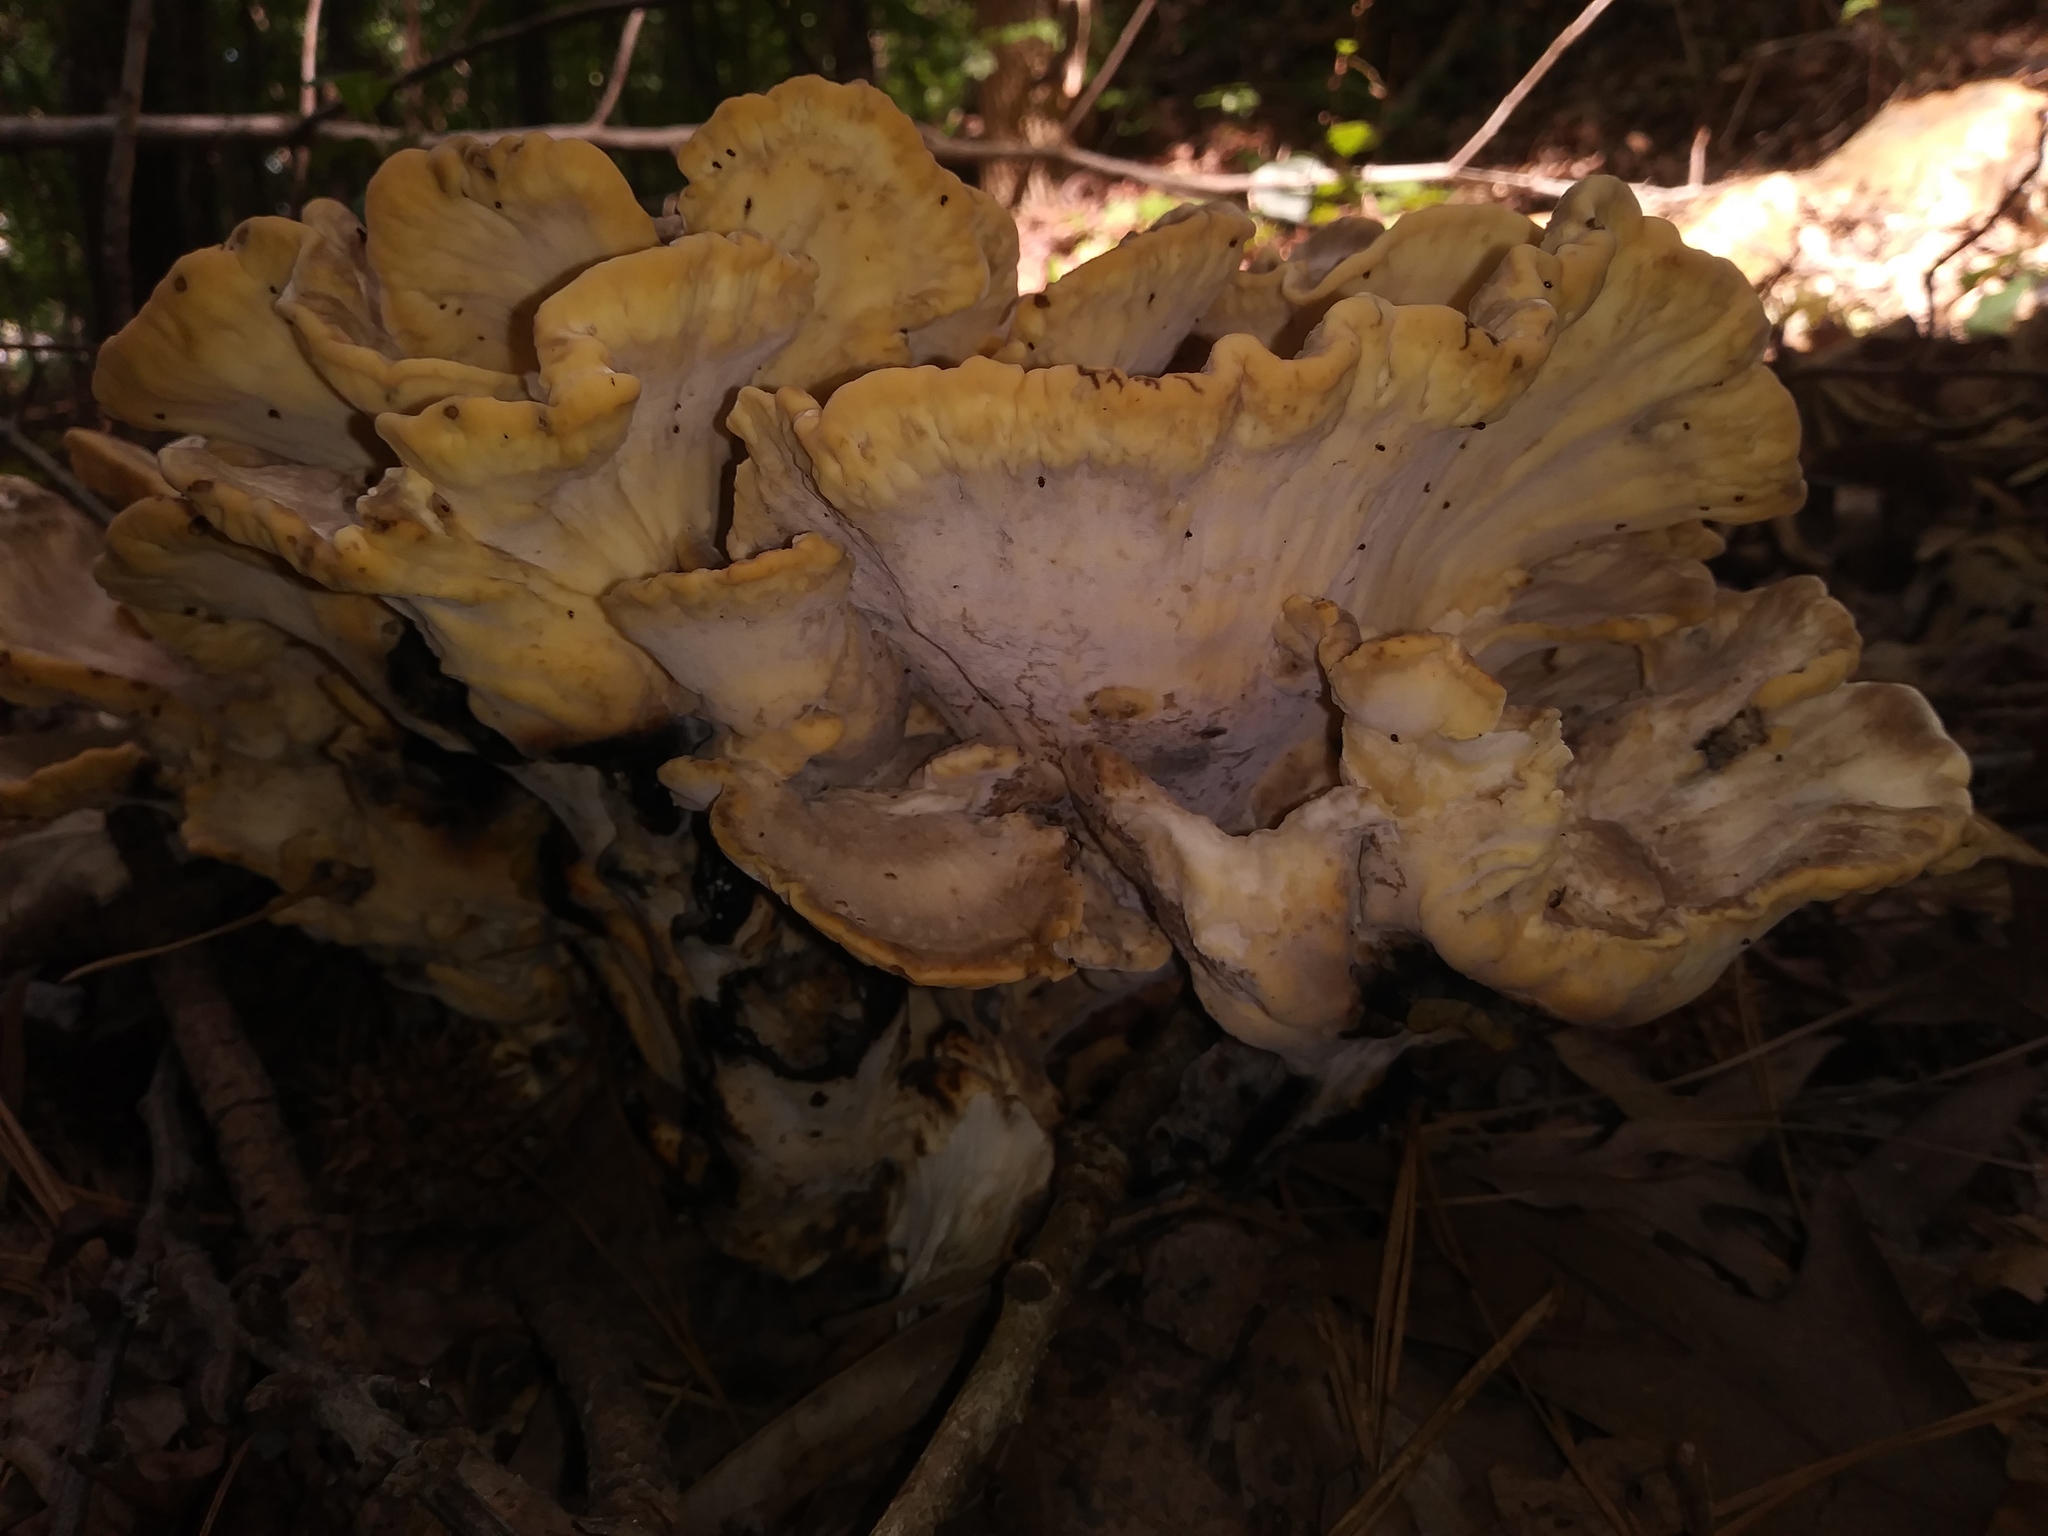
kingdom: Fungi
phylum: Basidiomycota
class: Agaricomycetes
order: Polyporales
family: Meripilaceae
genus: Meripilus
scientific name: Meripilus sumstinei
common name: Black-staining polypore
